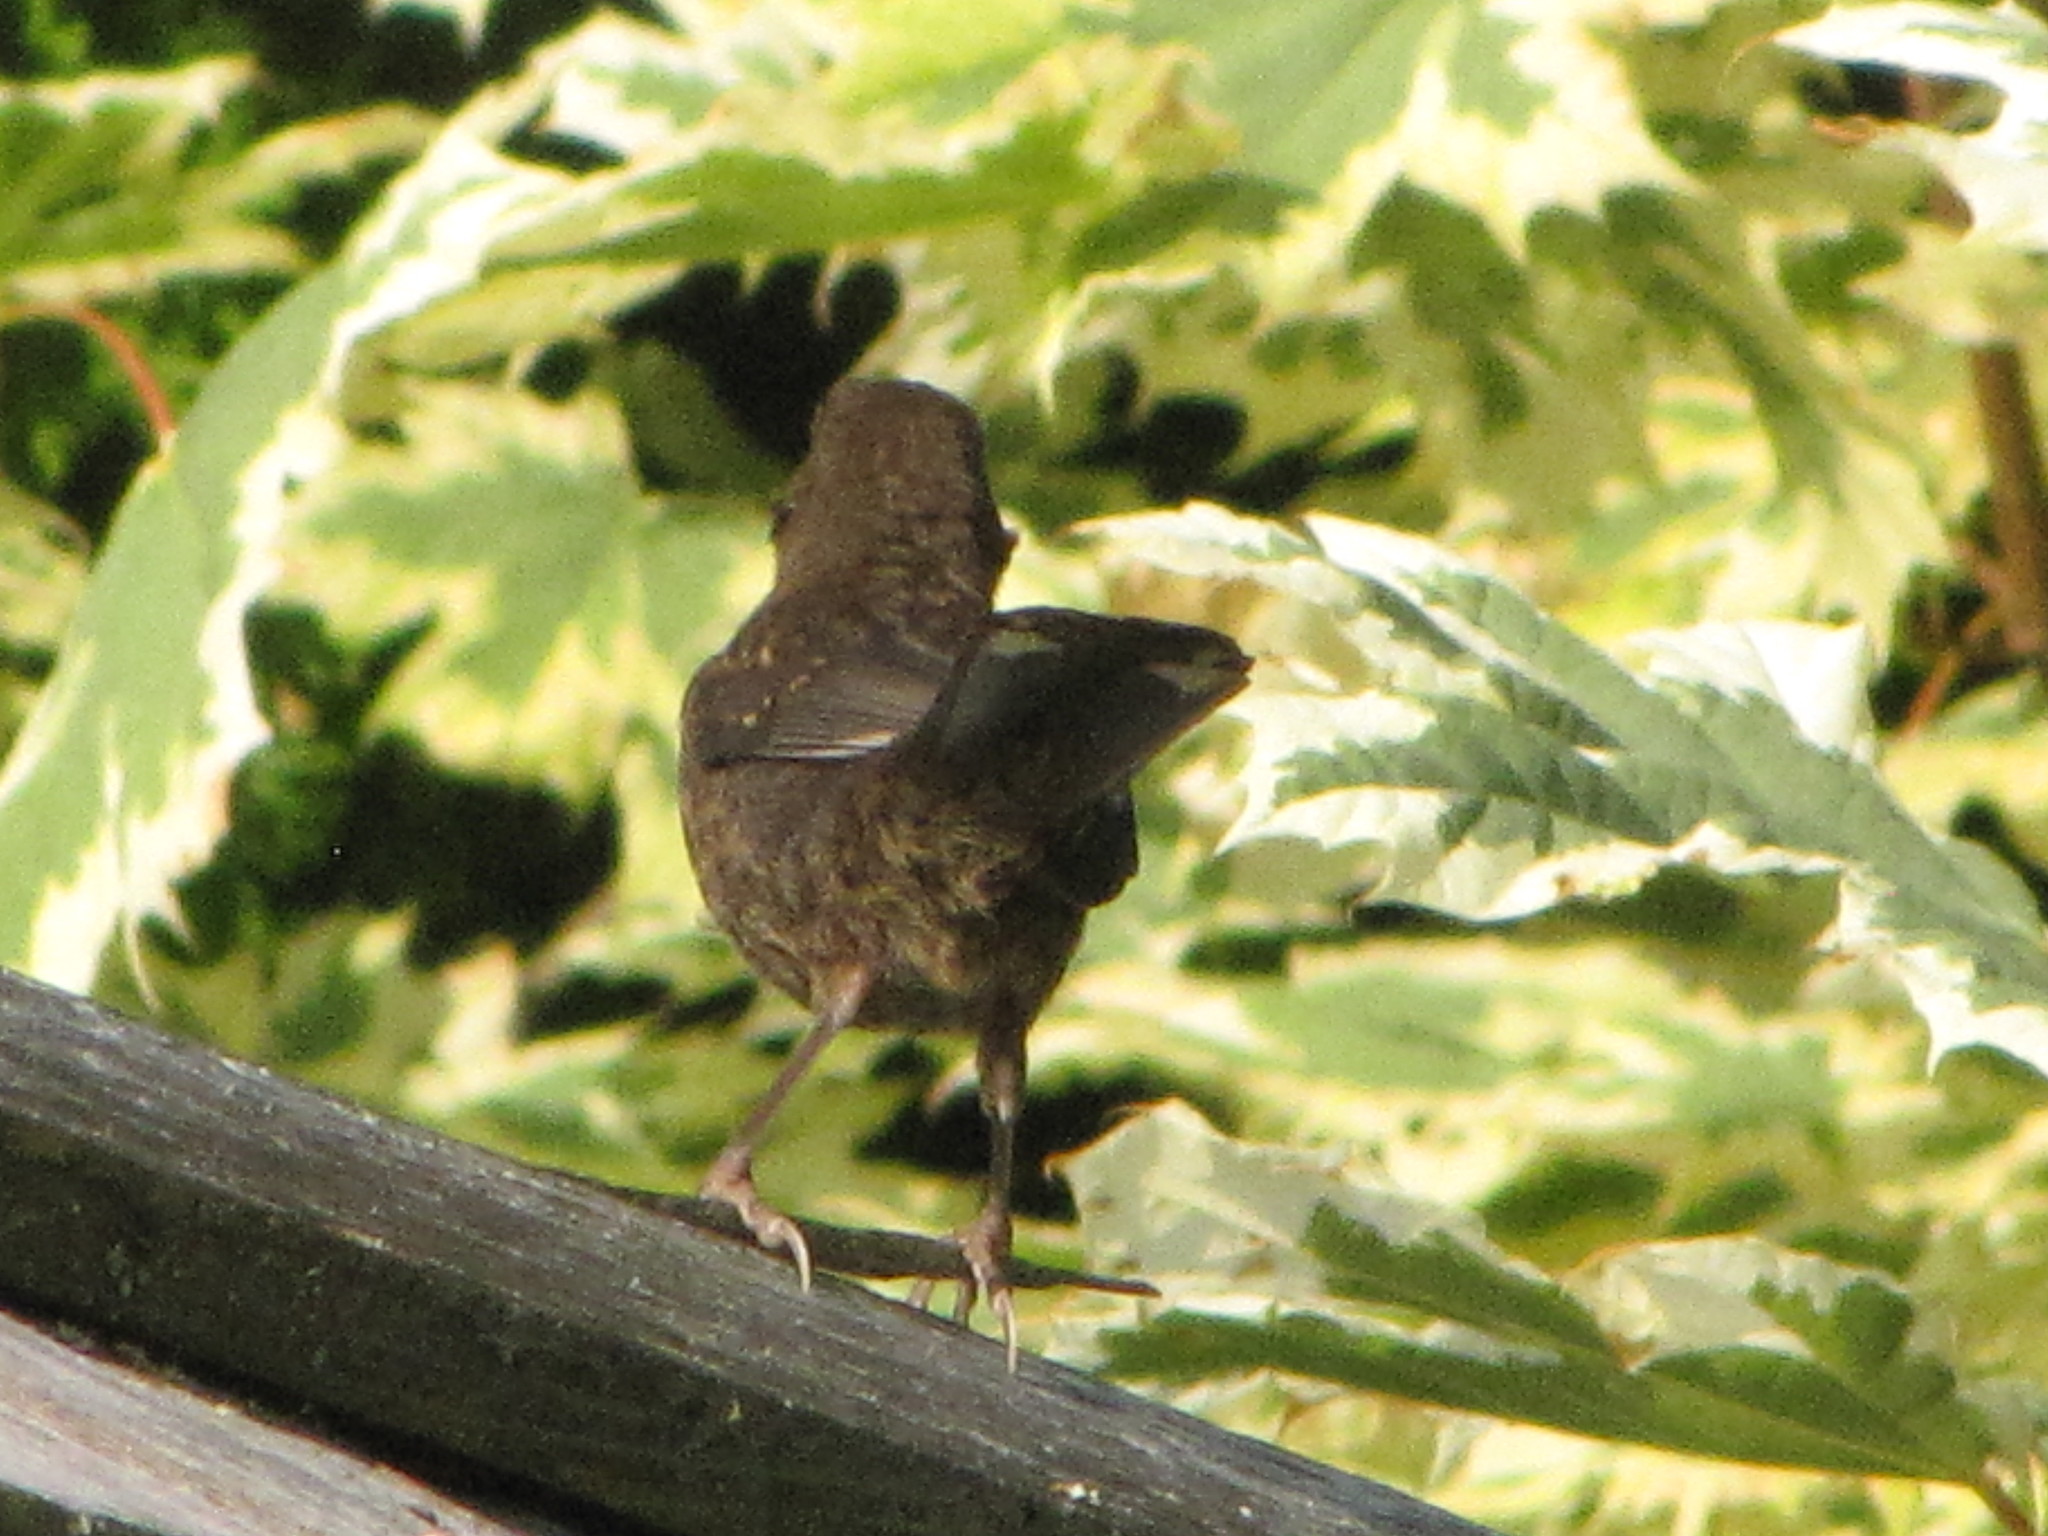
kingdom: Animalia
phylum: Chordata
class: Aves
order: Passeriformes
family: Passerellidae
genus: Pipilo
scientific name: Pipilo maculatus
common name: Spotted towhee
